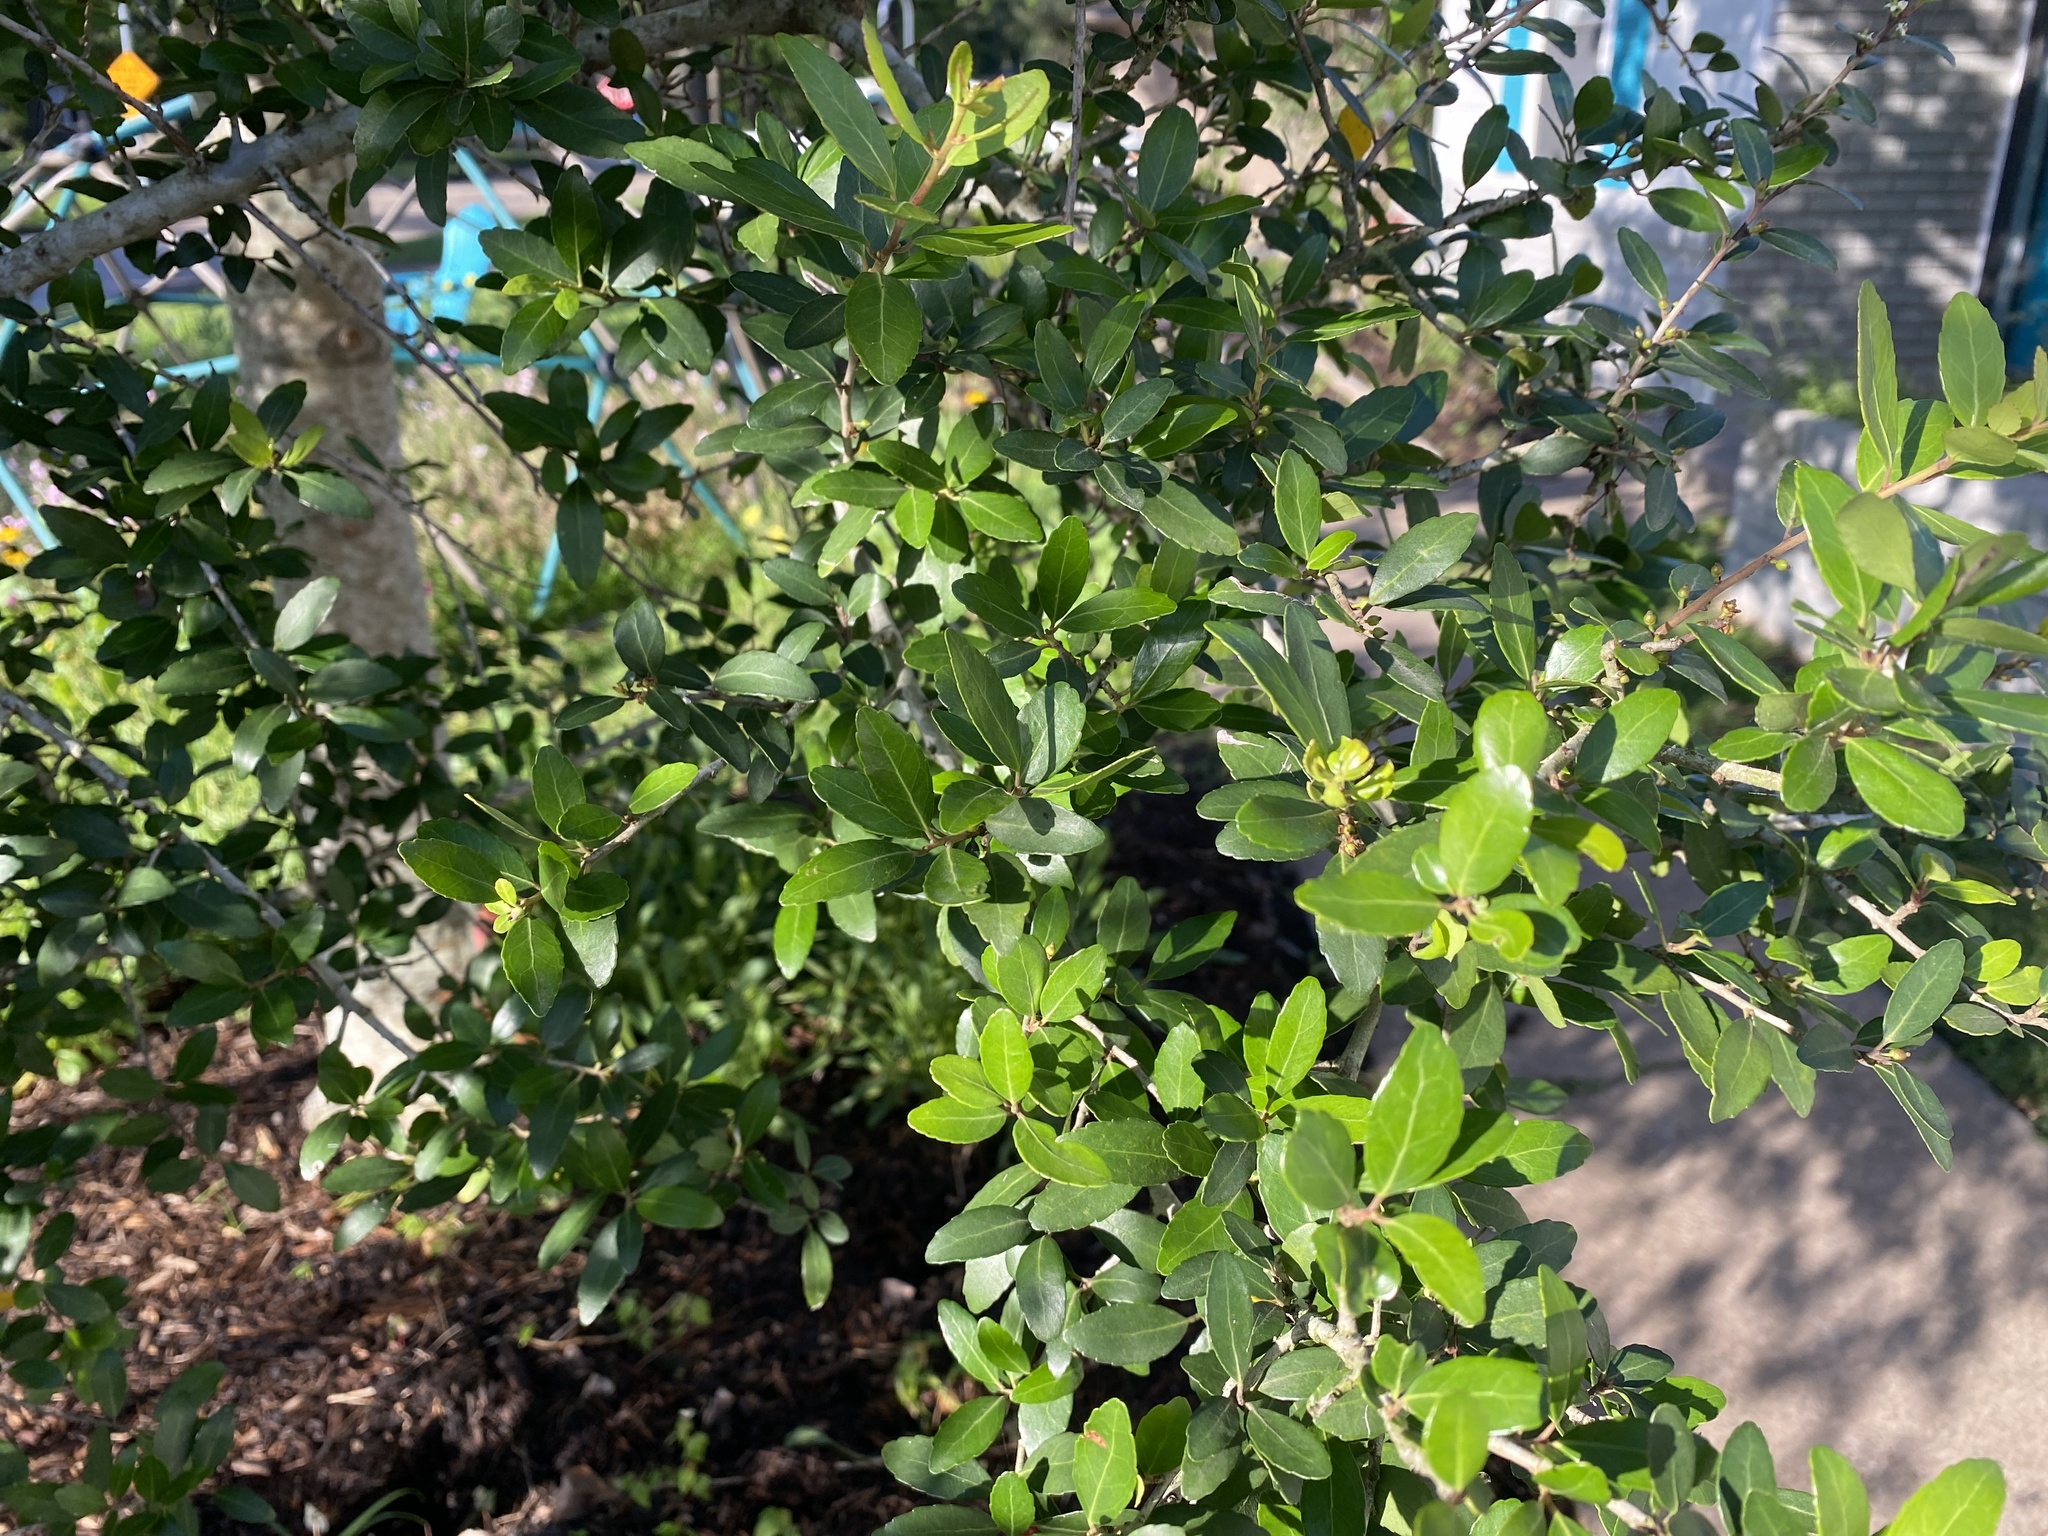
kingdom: Plantae
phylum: Tracheophyta
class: Magnoliopsida
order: Aquifoliales
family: Aquifoliaceae
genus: Ilex
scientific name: Ilex vomitoria
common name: Yaupon holly
